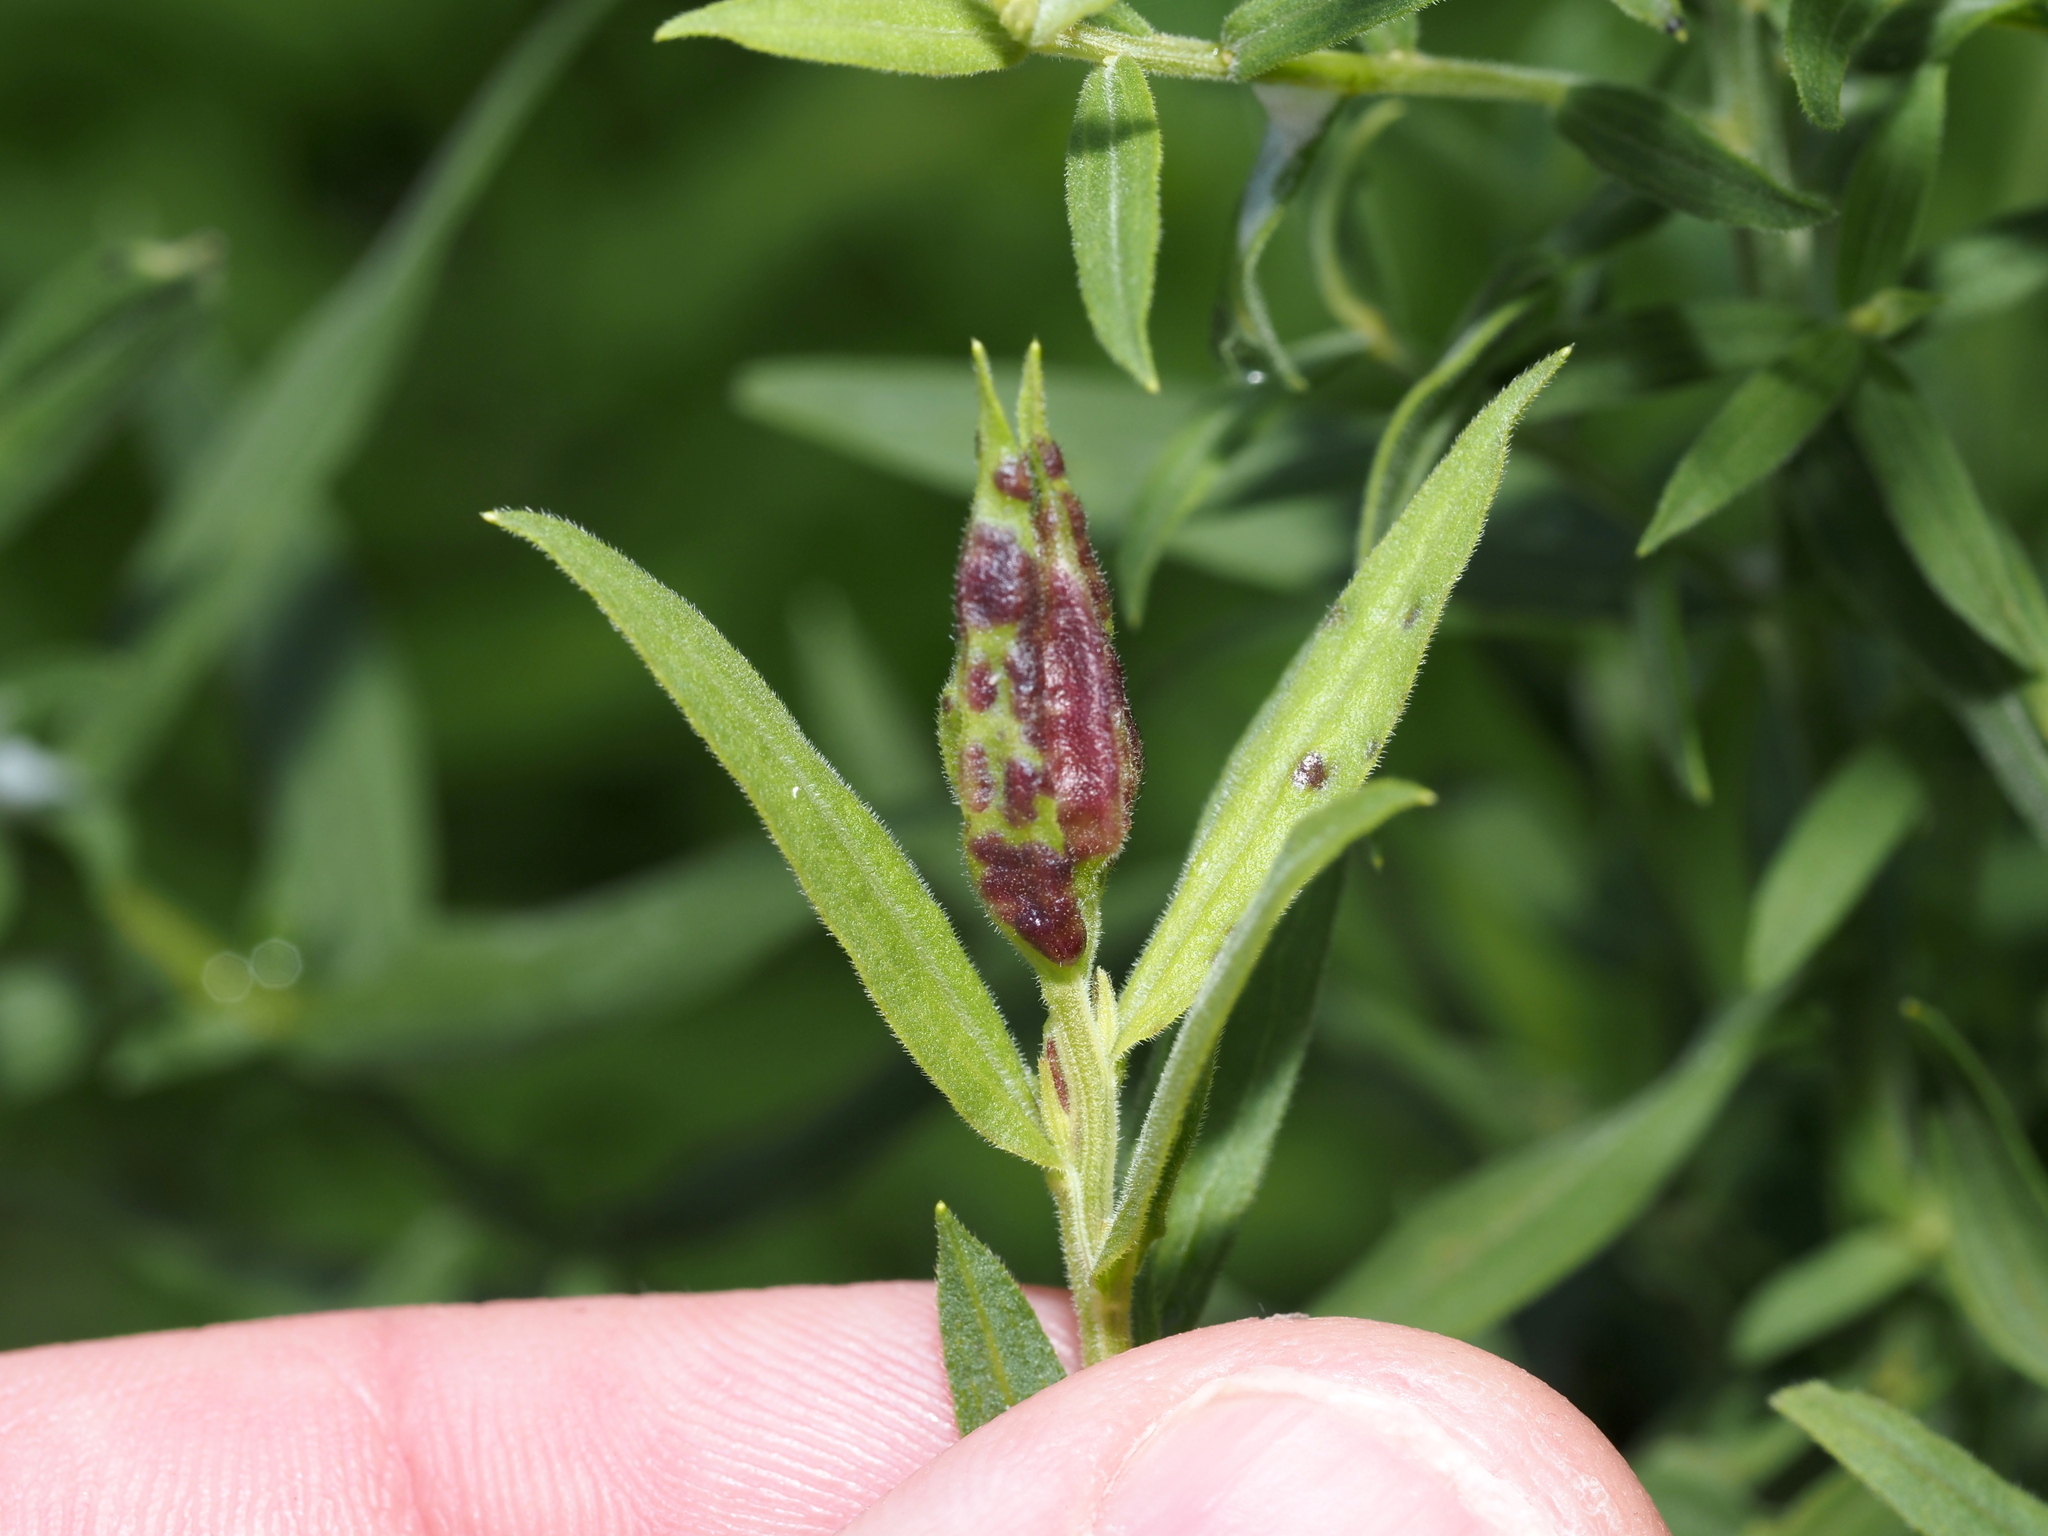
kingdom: Animalia
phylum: Arthropoda
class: Insecta
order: Diptera
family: Cecidomyiidae
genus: Dasineura
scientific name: Dasineura carbonaria
